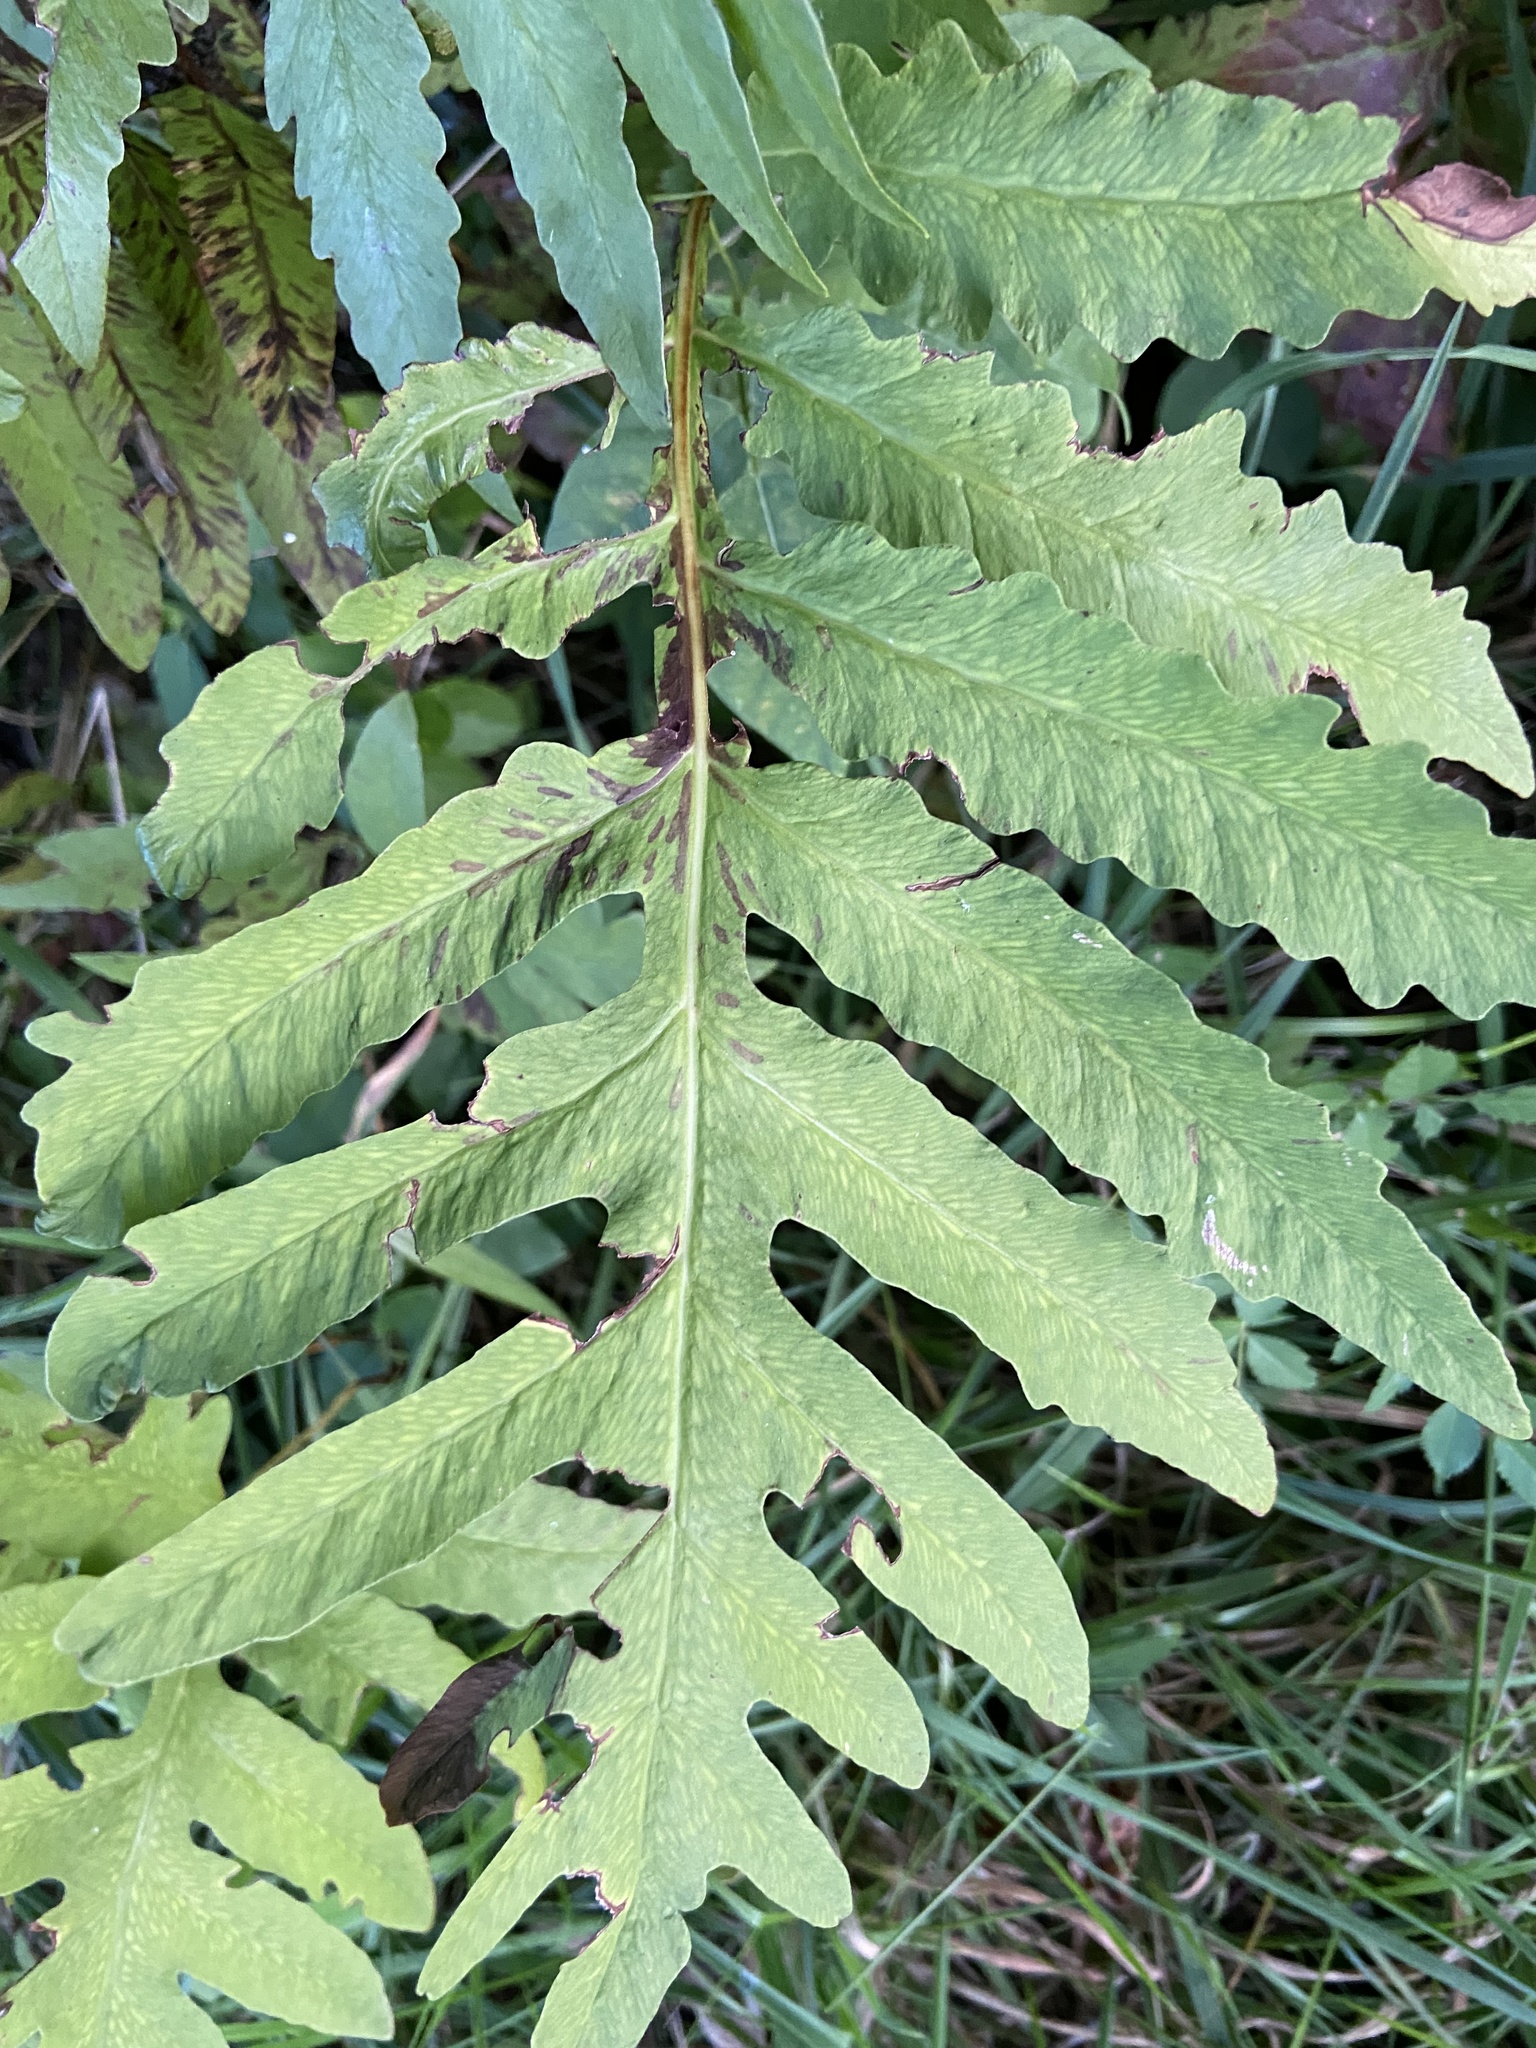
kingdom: Plantae
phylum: Tracheophyta
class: Polypodiopsida
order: Polypodiales
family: Onocleaceae
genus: Onoclea
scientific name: Onoclea sensibilis
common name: Sensitive fern
